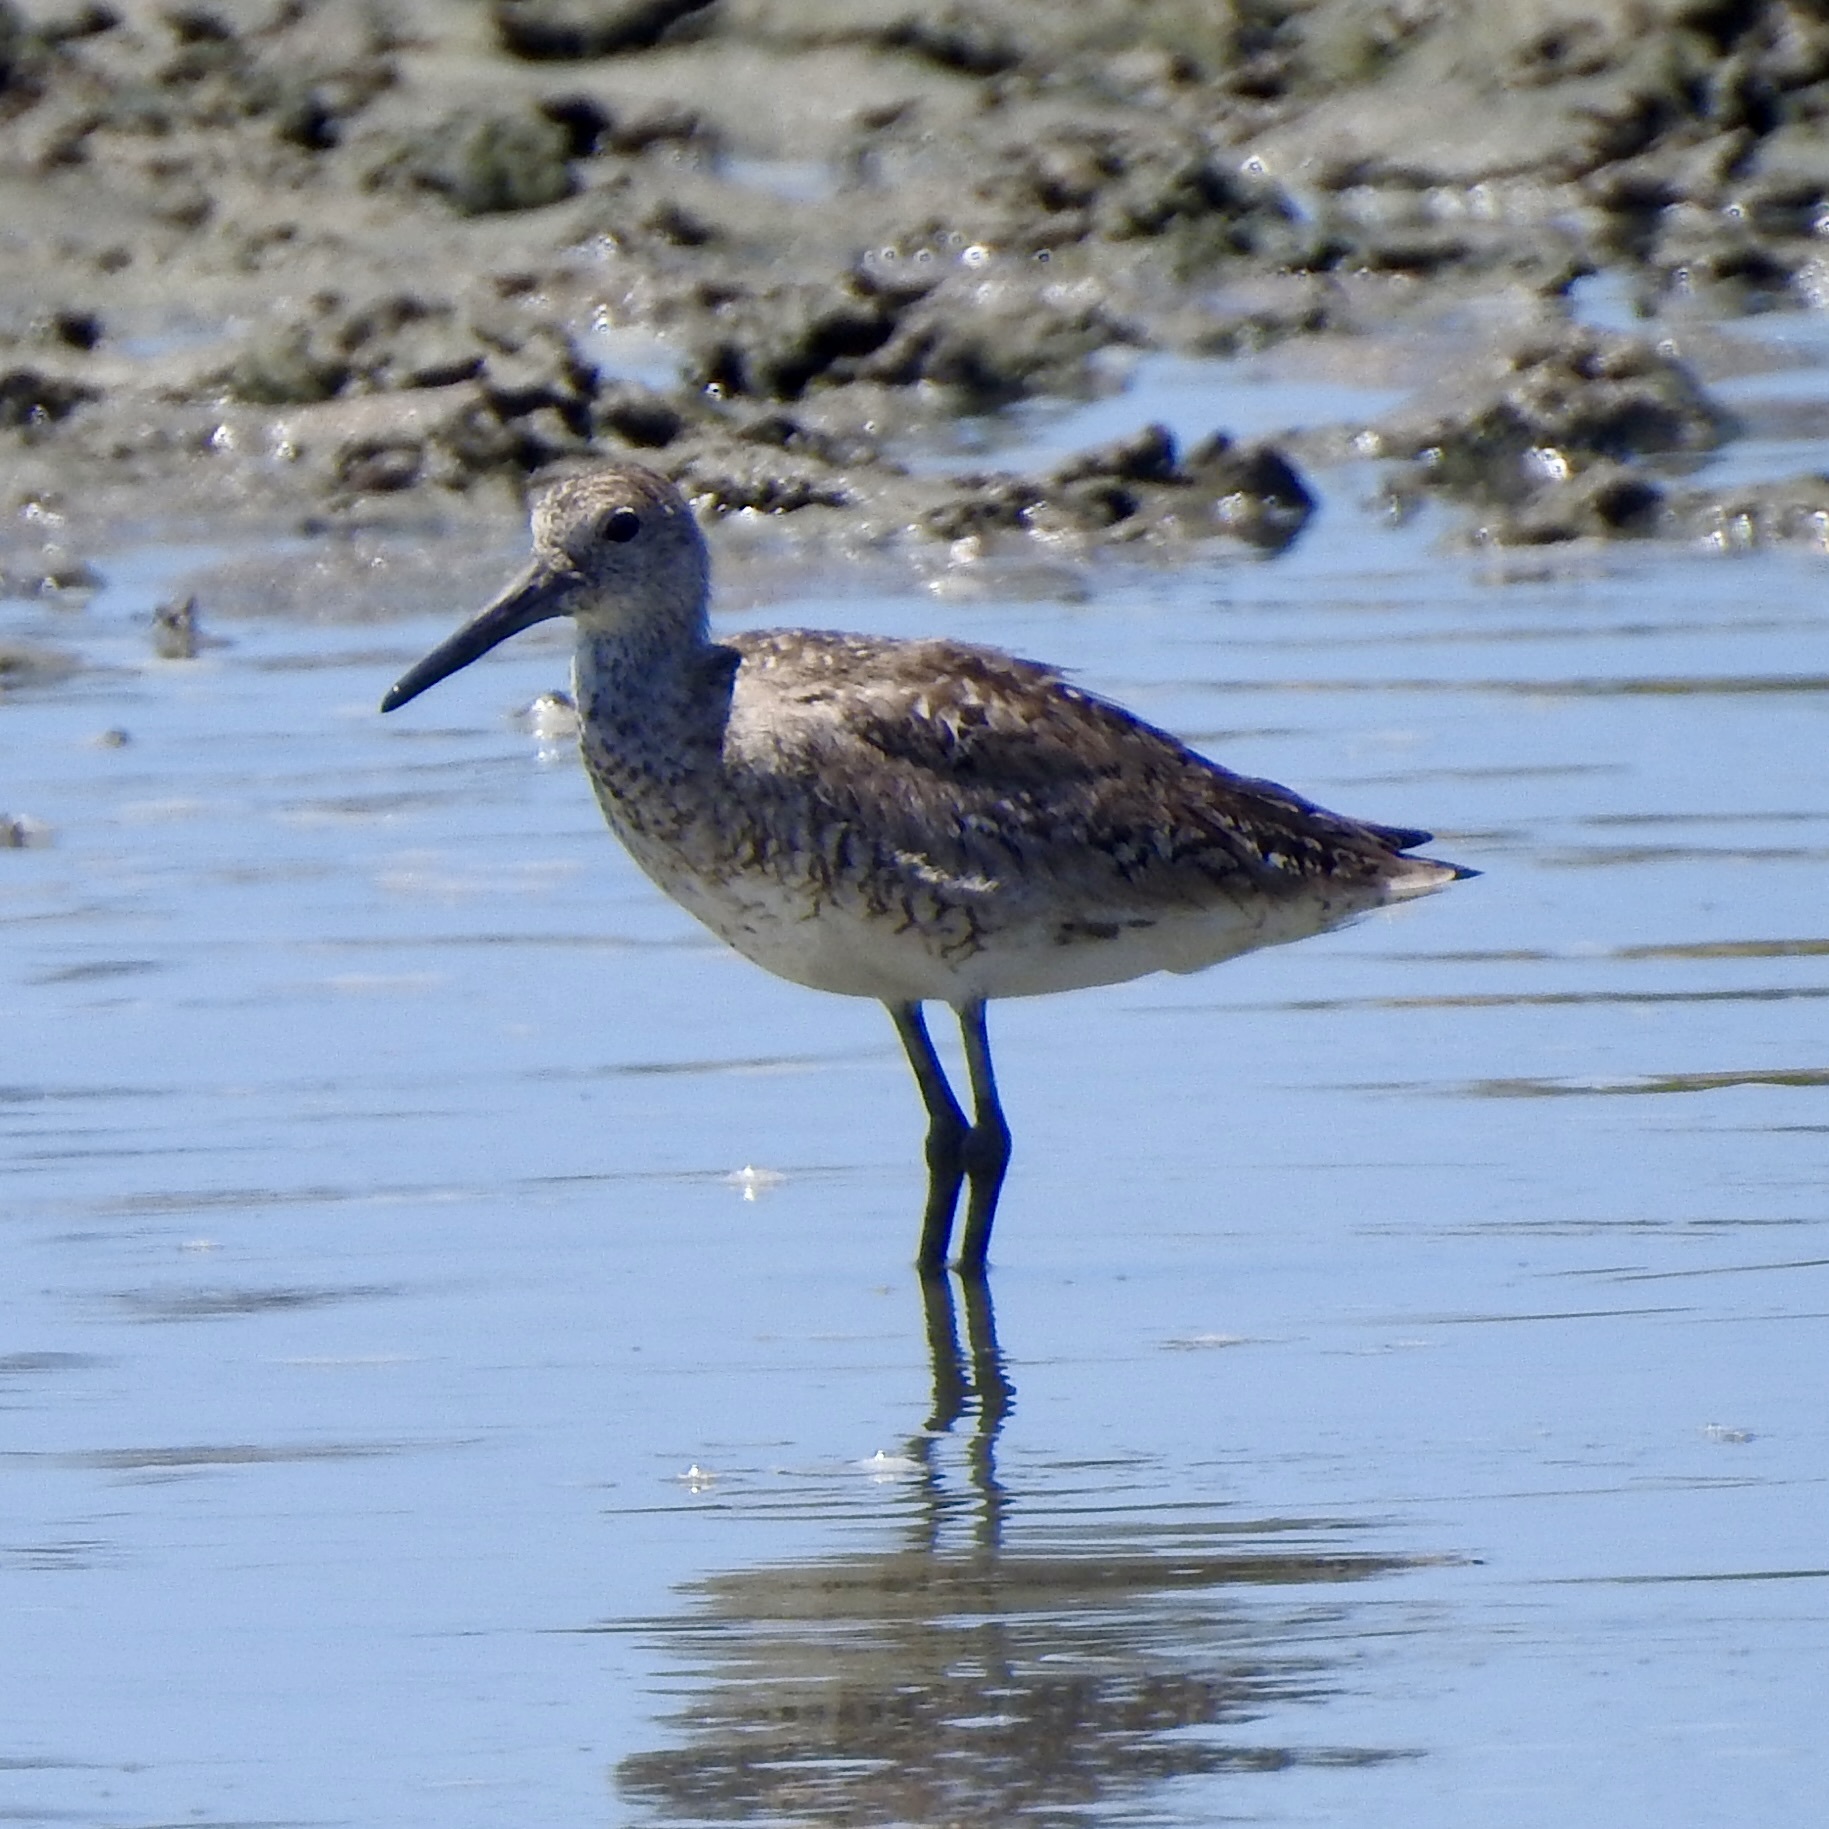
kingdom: Animalia
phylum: Chordata
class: Aves
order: Charadriiformes
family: Scolopacidae
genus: Tringa
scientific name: Tringa semipalmata
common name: Willet
